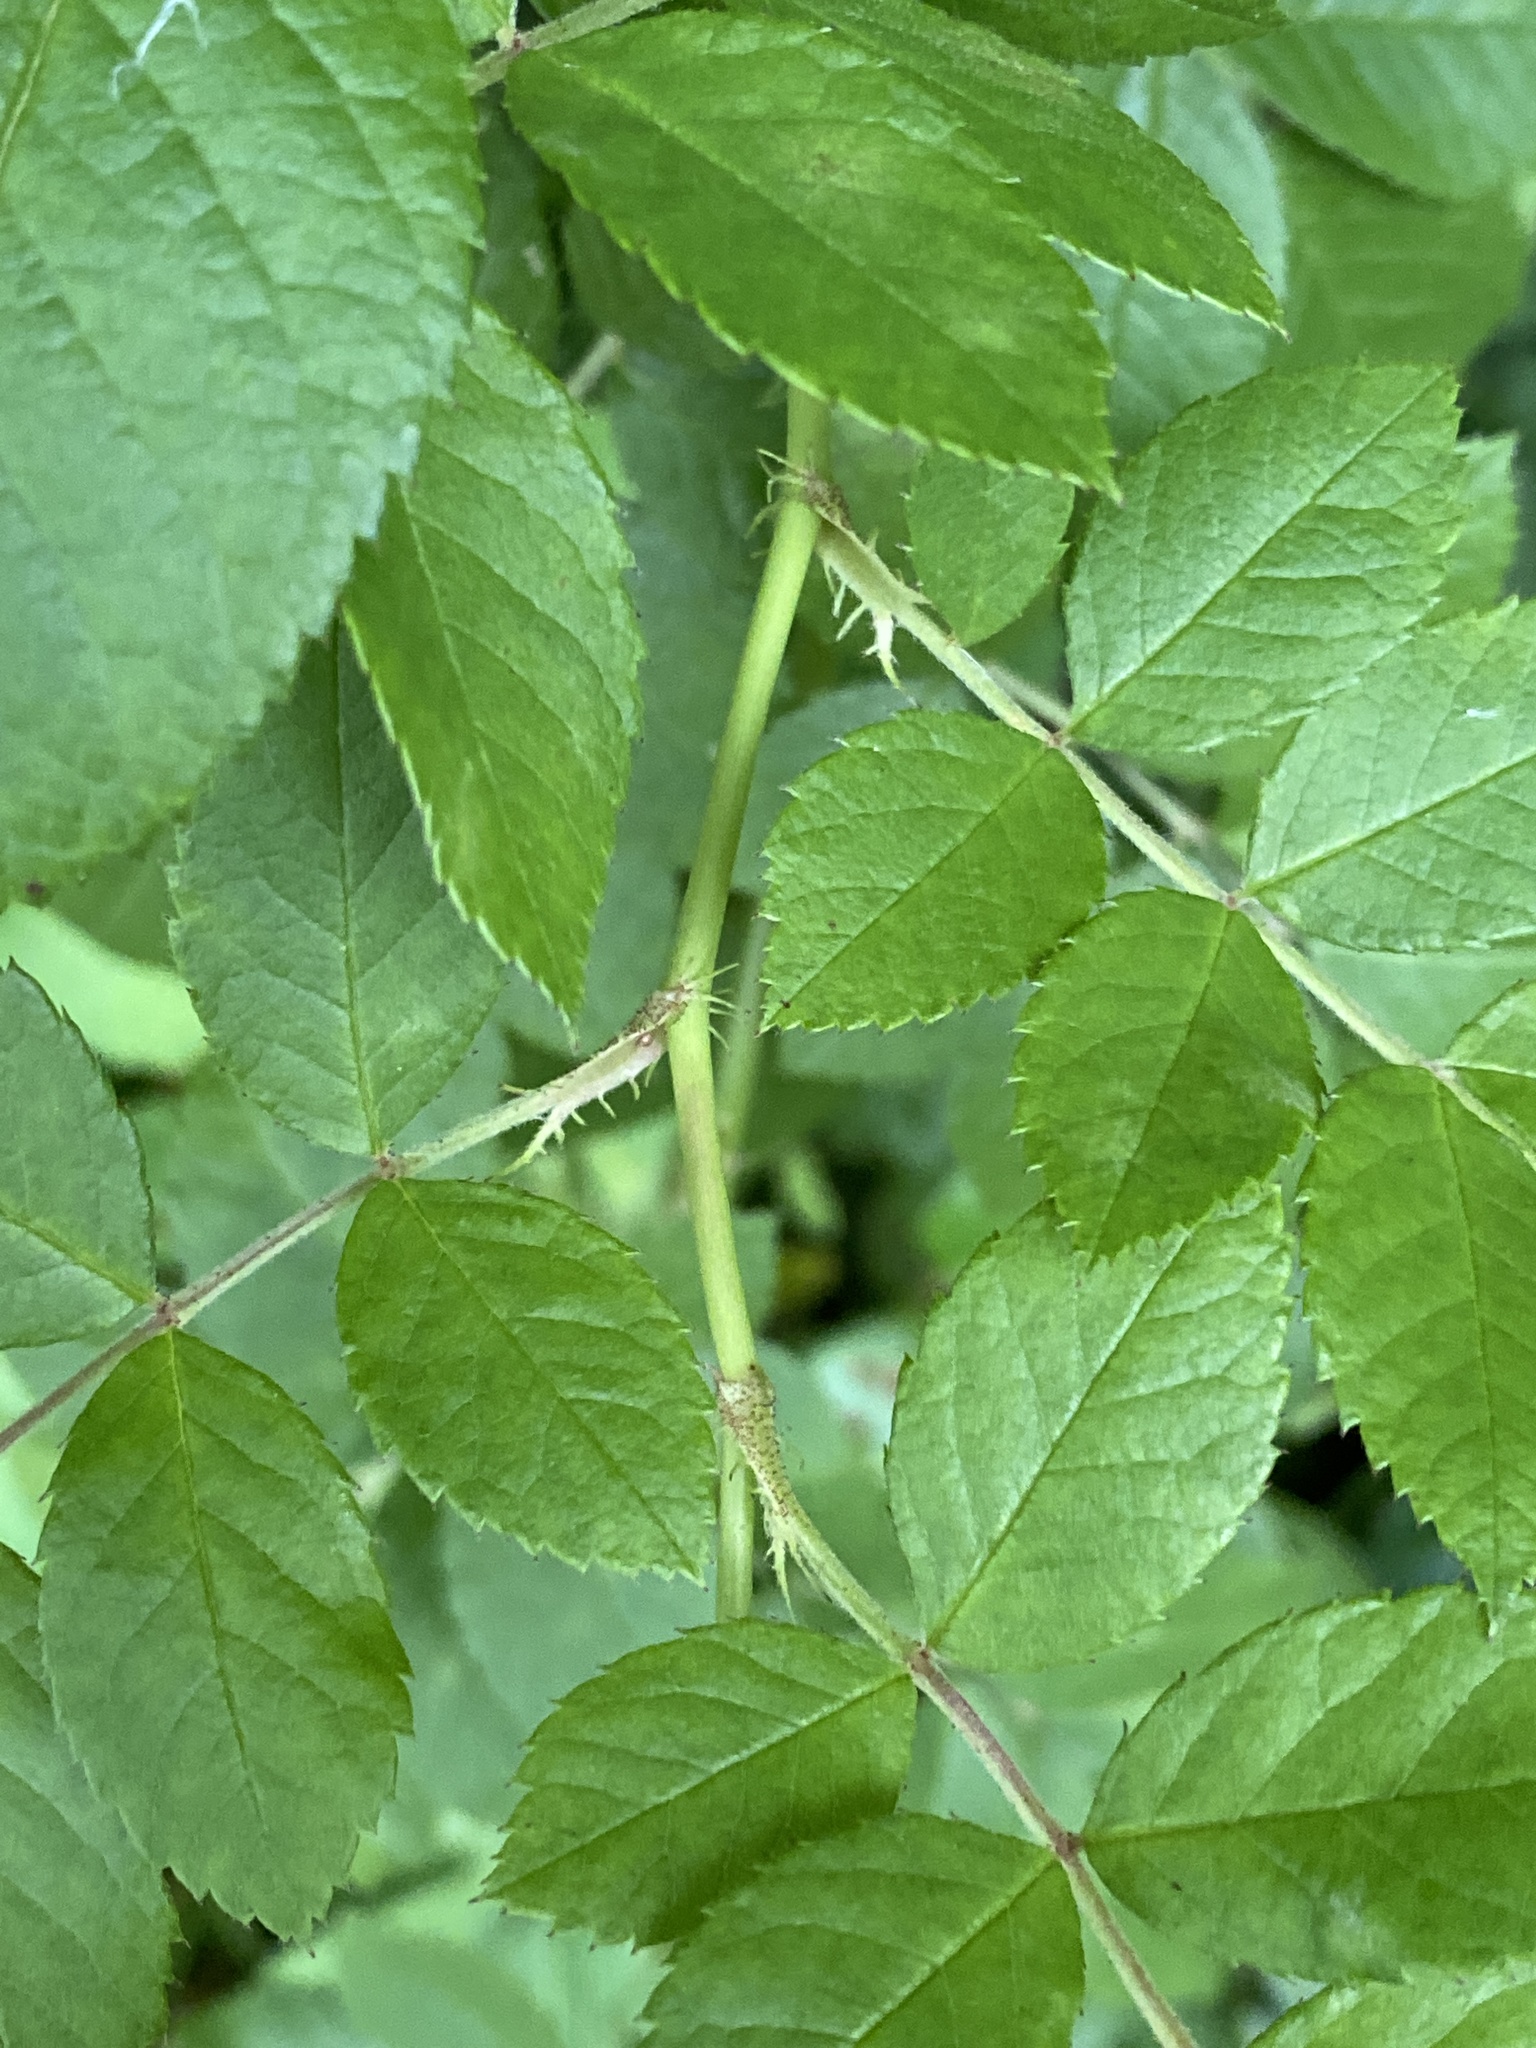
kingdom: Plantae
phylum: Tracheophyta
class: Magnoliopsida
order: Rosales
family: Rosaceae
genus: Rosa
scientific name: Rosa multiflora
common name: Multiflora rose
